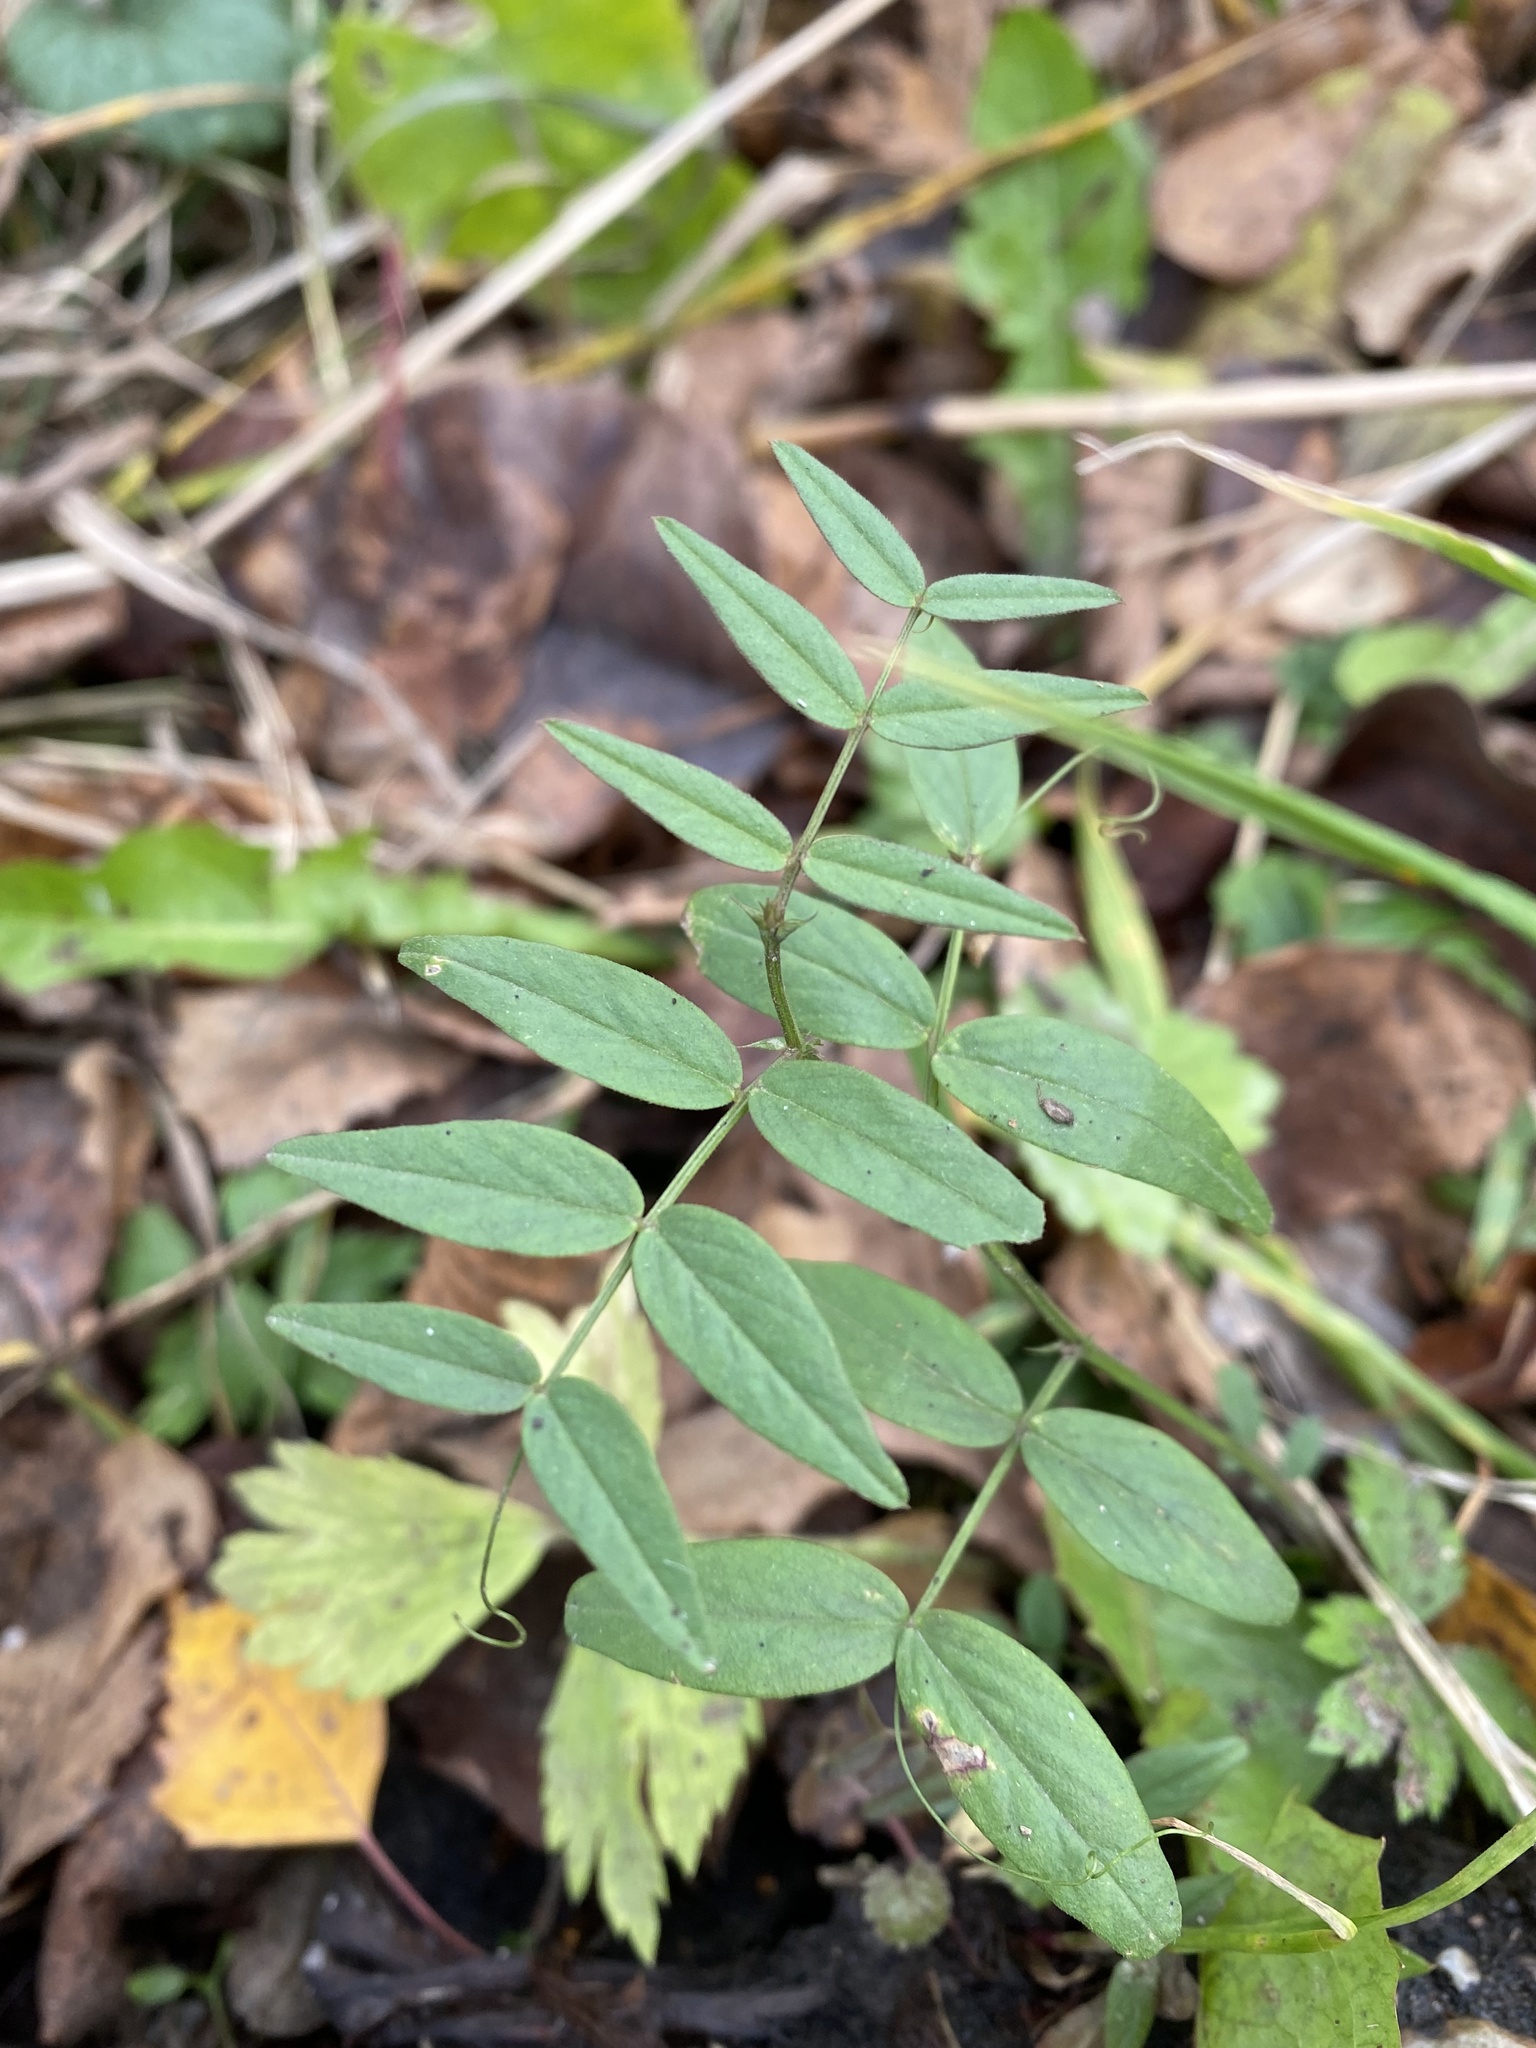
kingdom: Plantae
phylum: Tracheophyta
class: Magnoliopsida
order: Fabales
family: Fabaceae
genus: Vicia
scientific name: Vicia sepium
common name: Bush vetch
